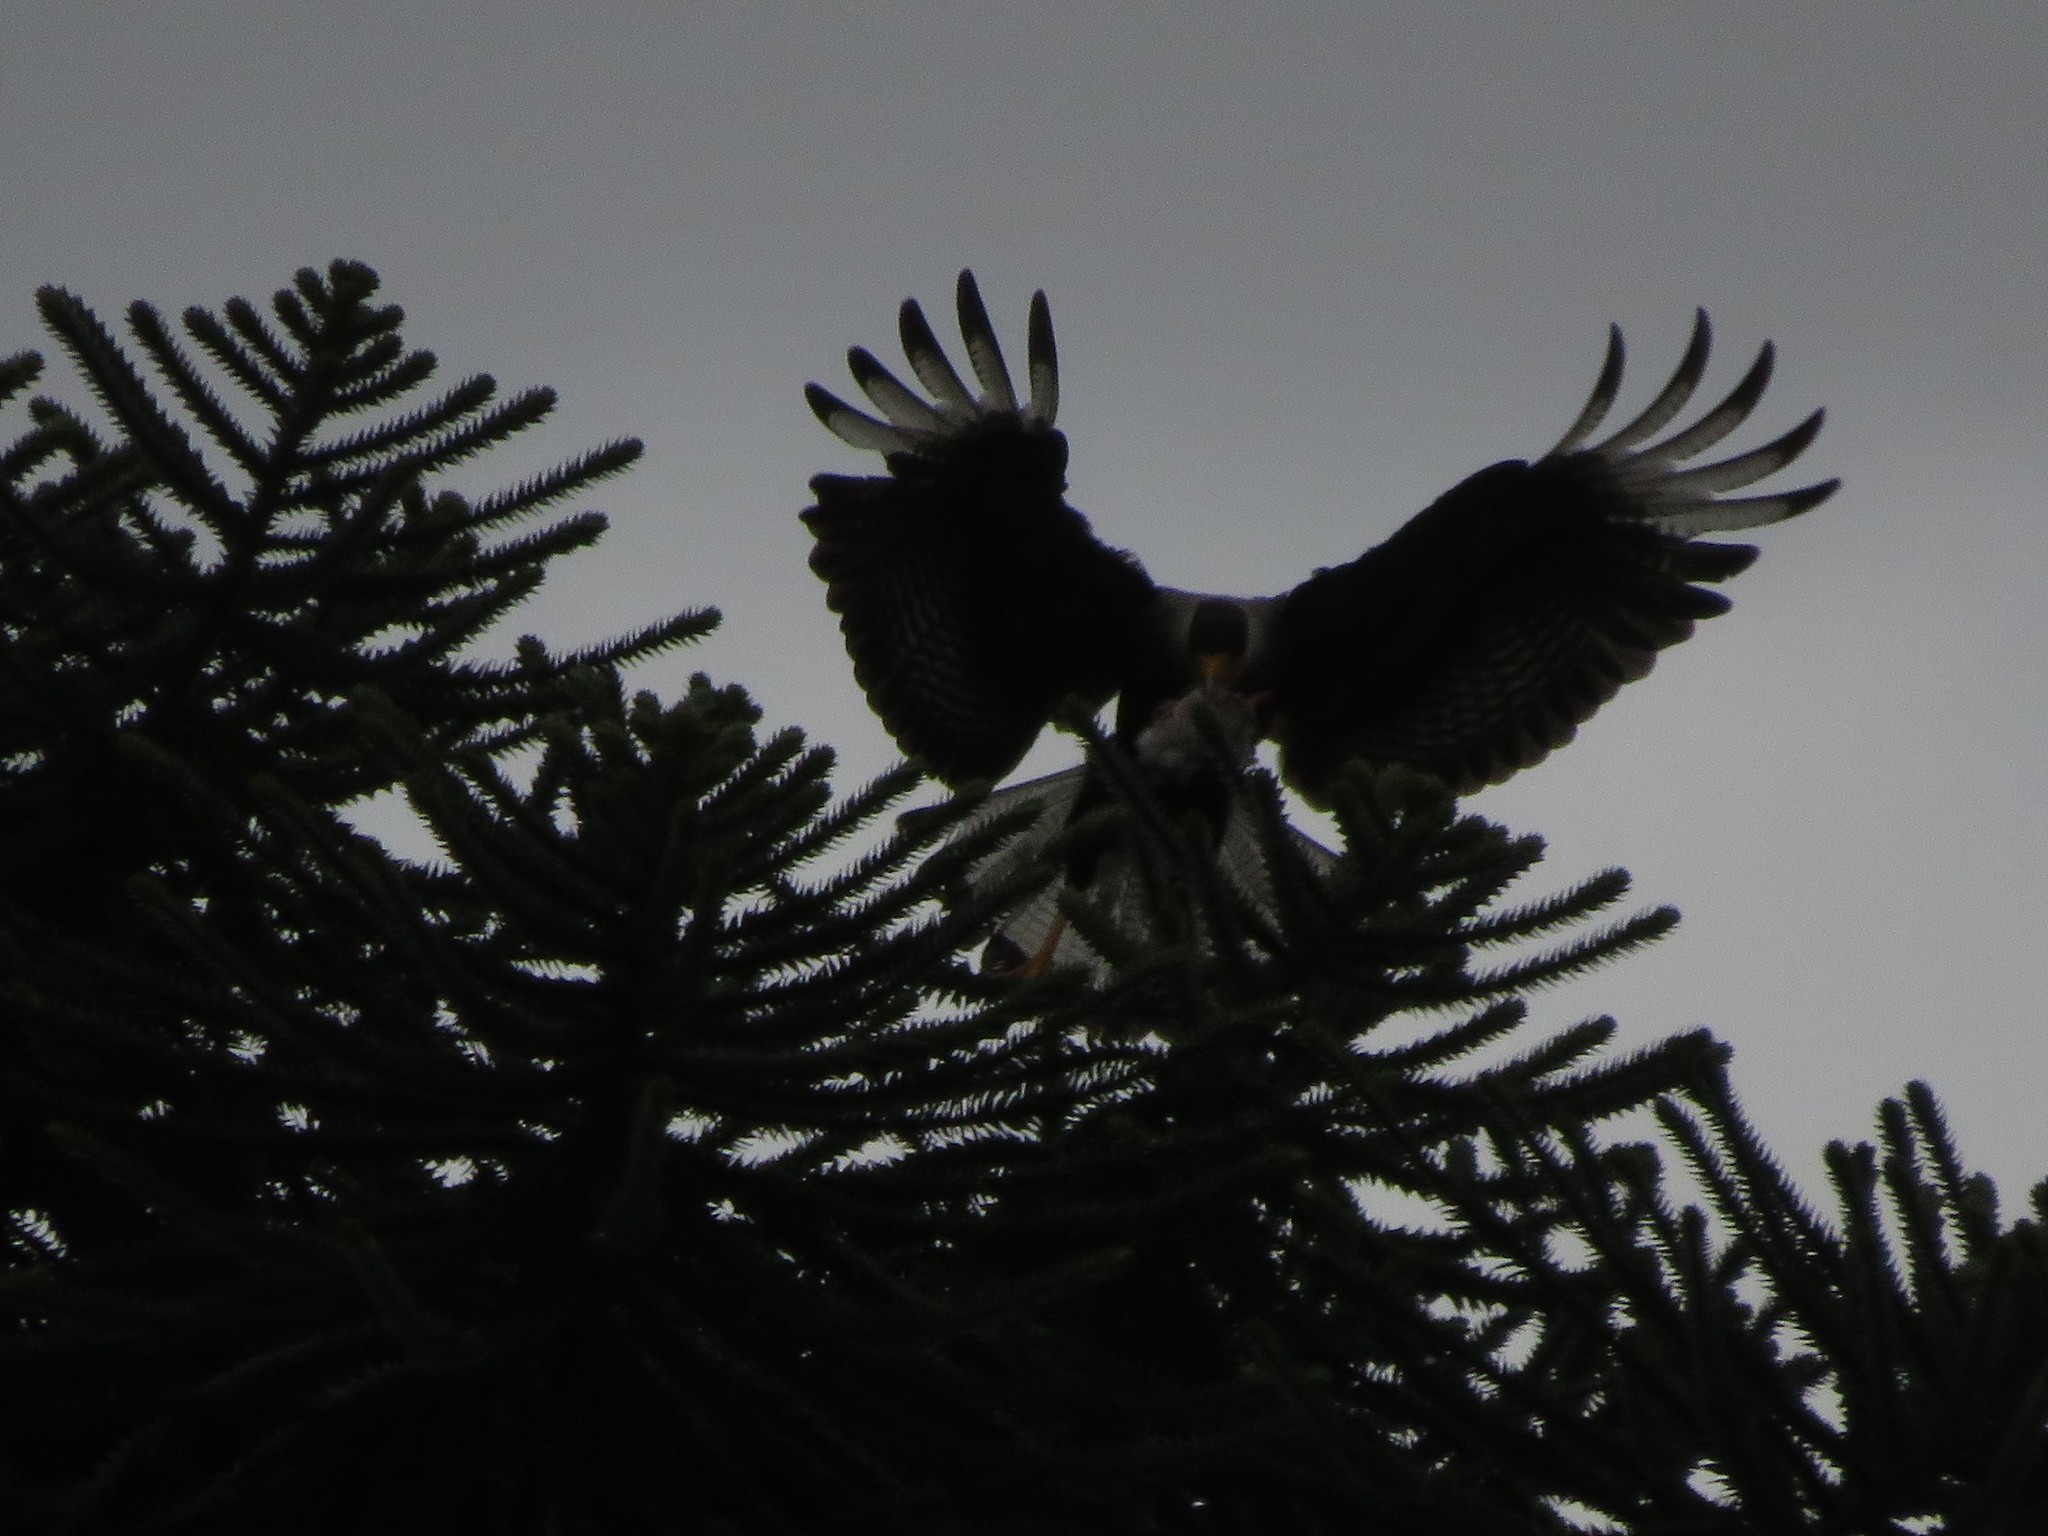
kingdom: Animalia
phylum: Chordata
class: Aves
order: Falconiformes
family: Falconidae
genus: Caracara
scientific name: Caracara plancus
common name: Southern caracara
